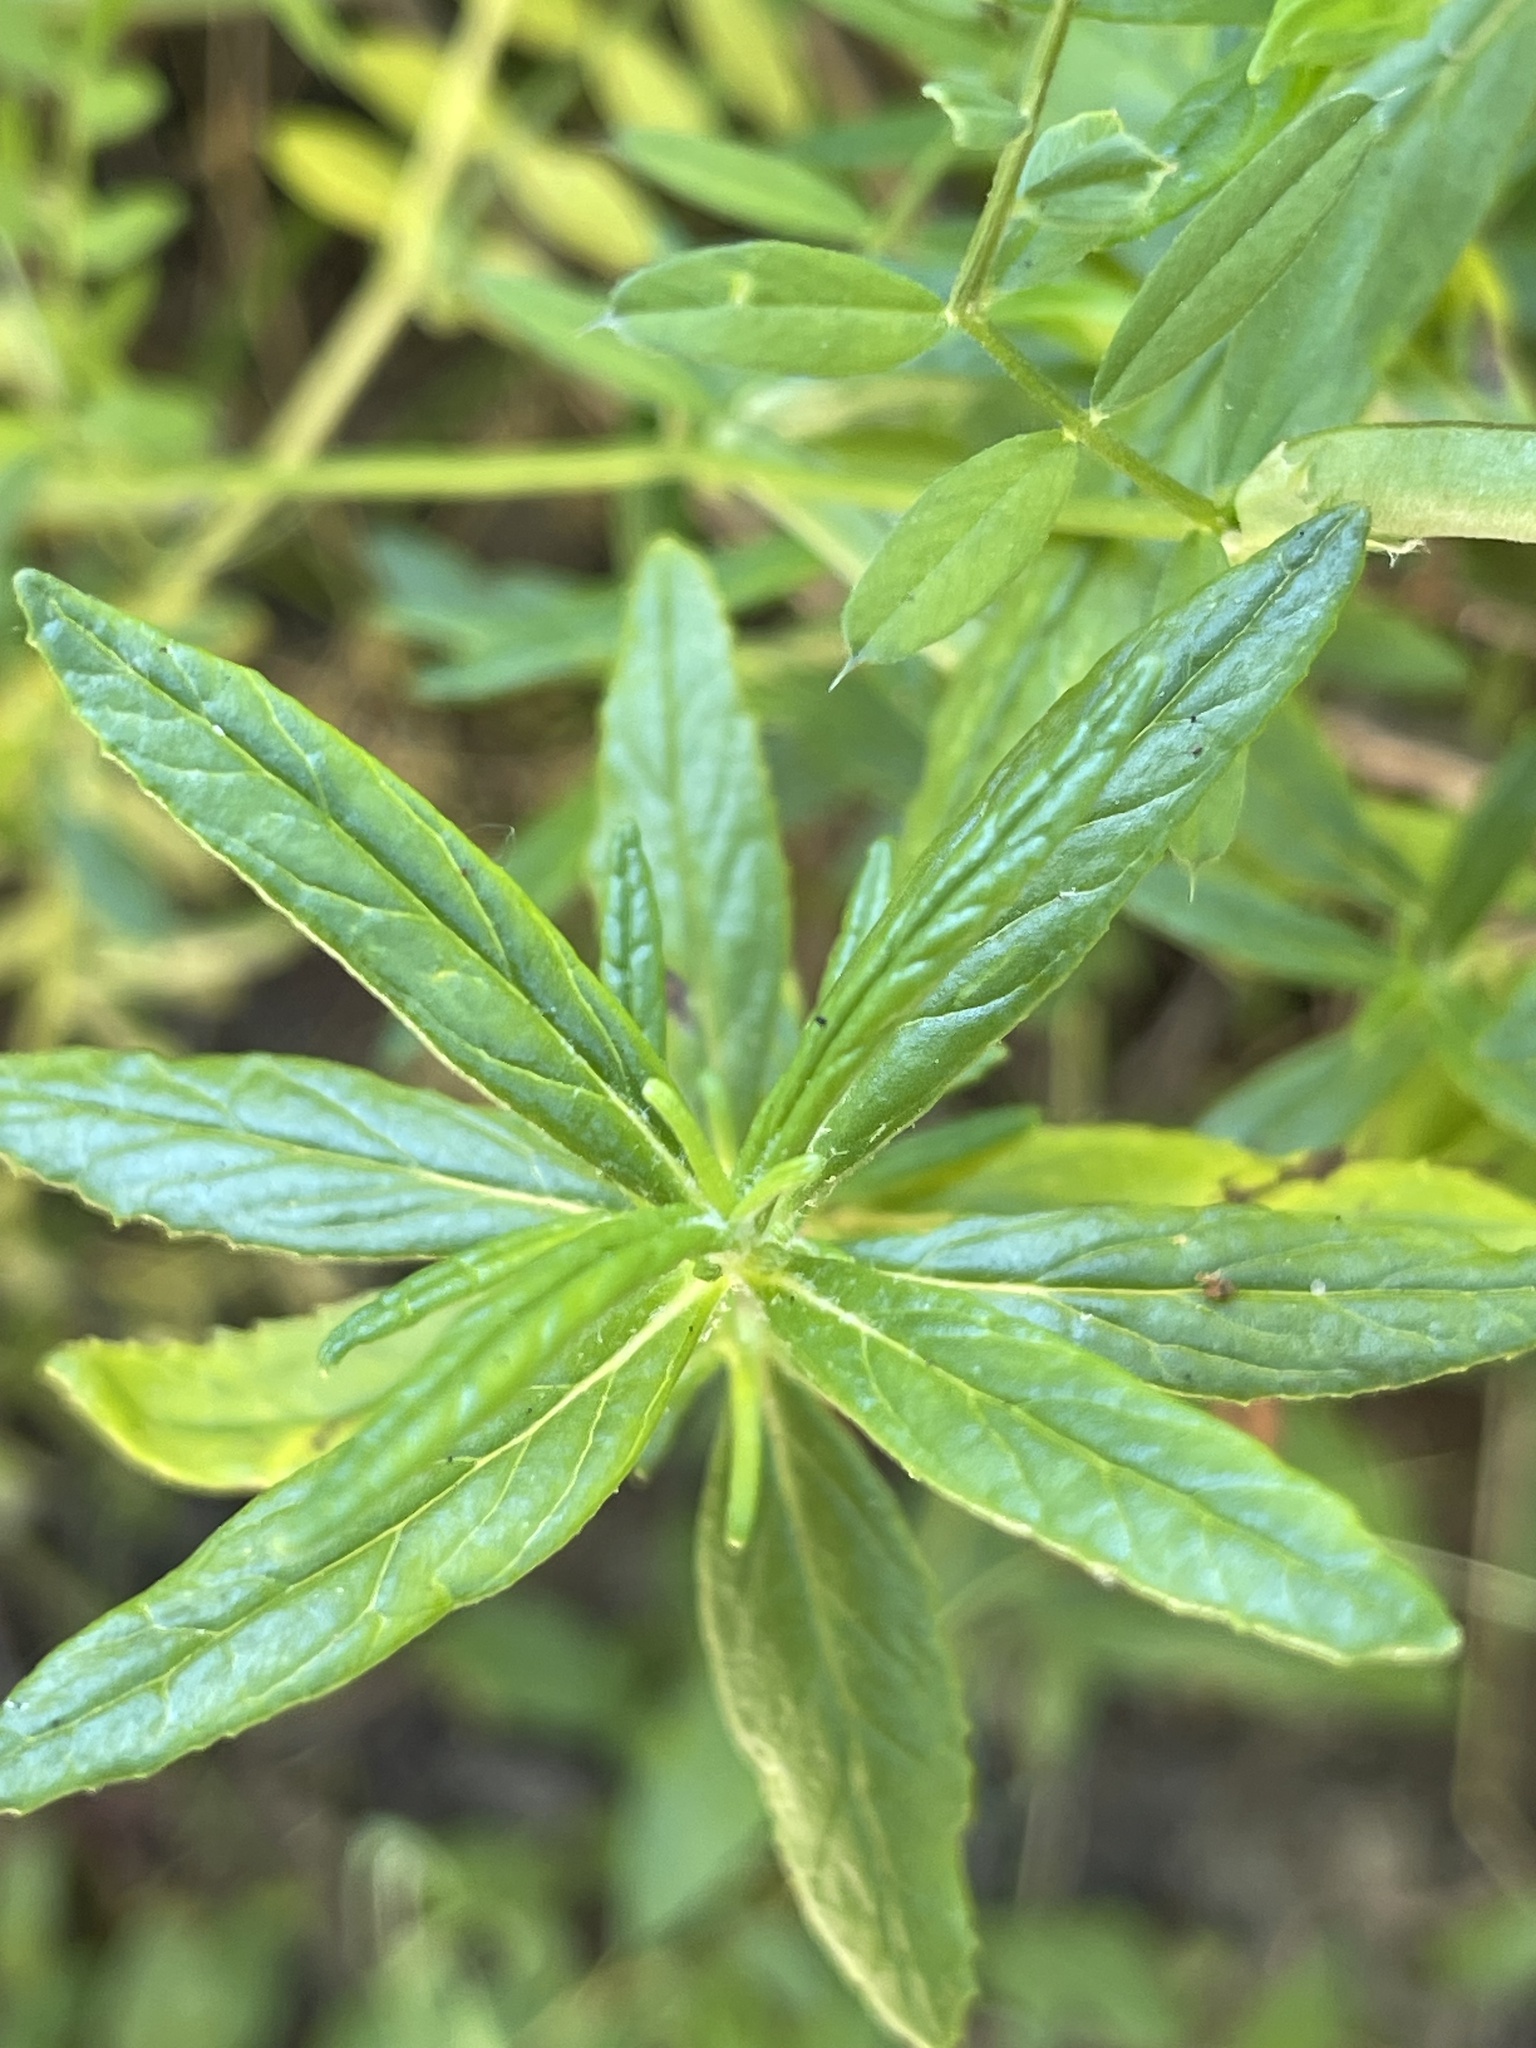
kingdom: Plantae
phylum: Tracheophyta
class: Magnoliopsida
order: Lamiales
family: Phrymaceae
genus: Diplacus
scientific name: Diplacus aurantiacus
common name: Bush monkey-flower
